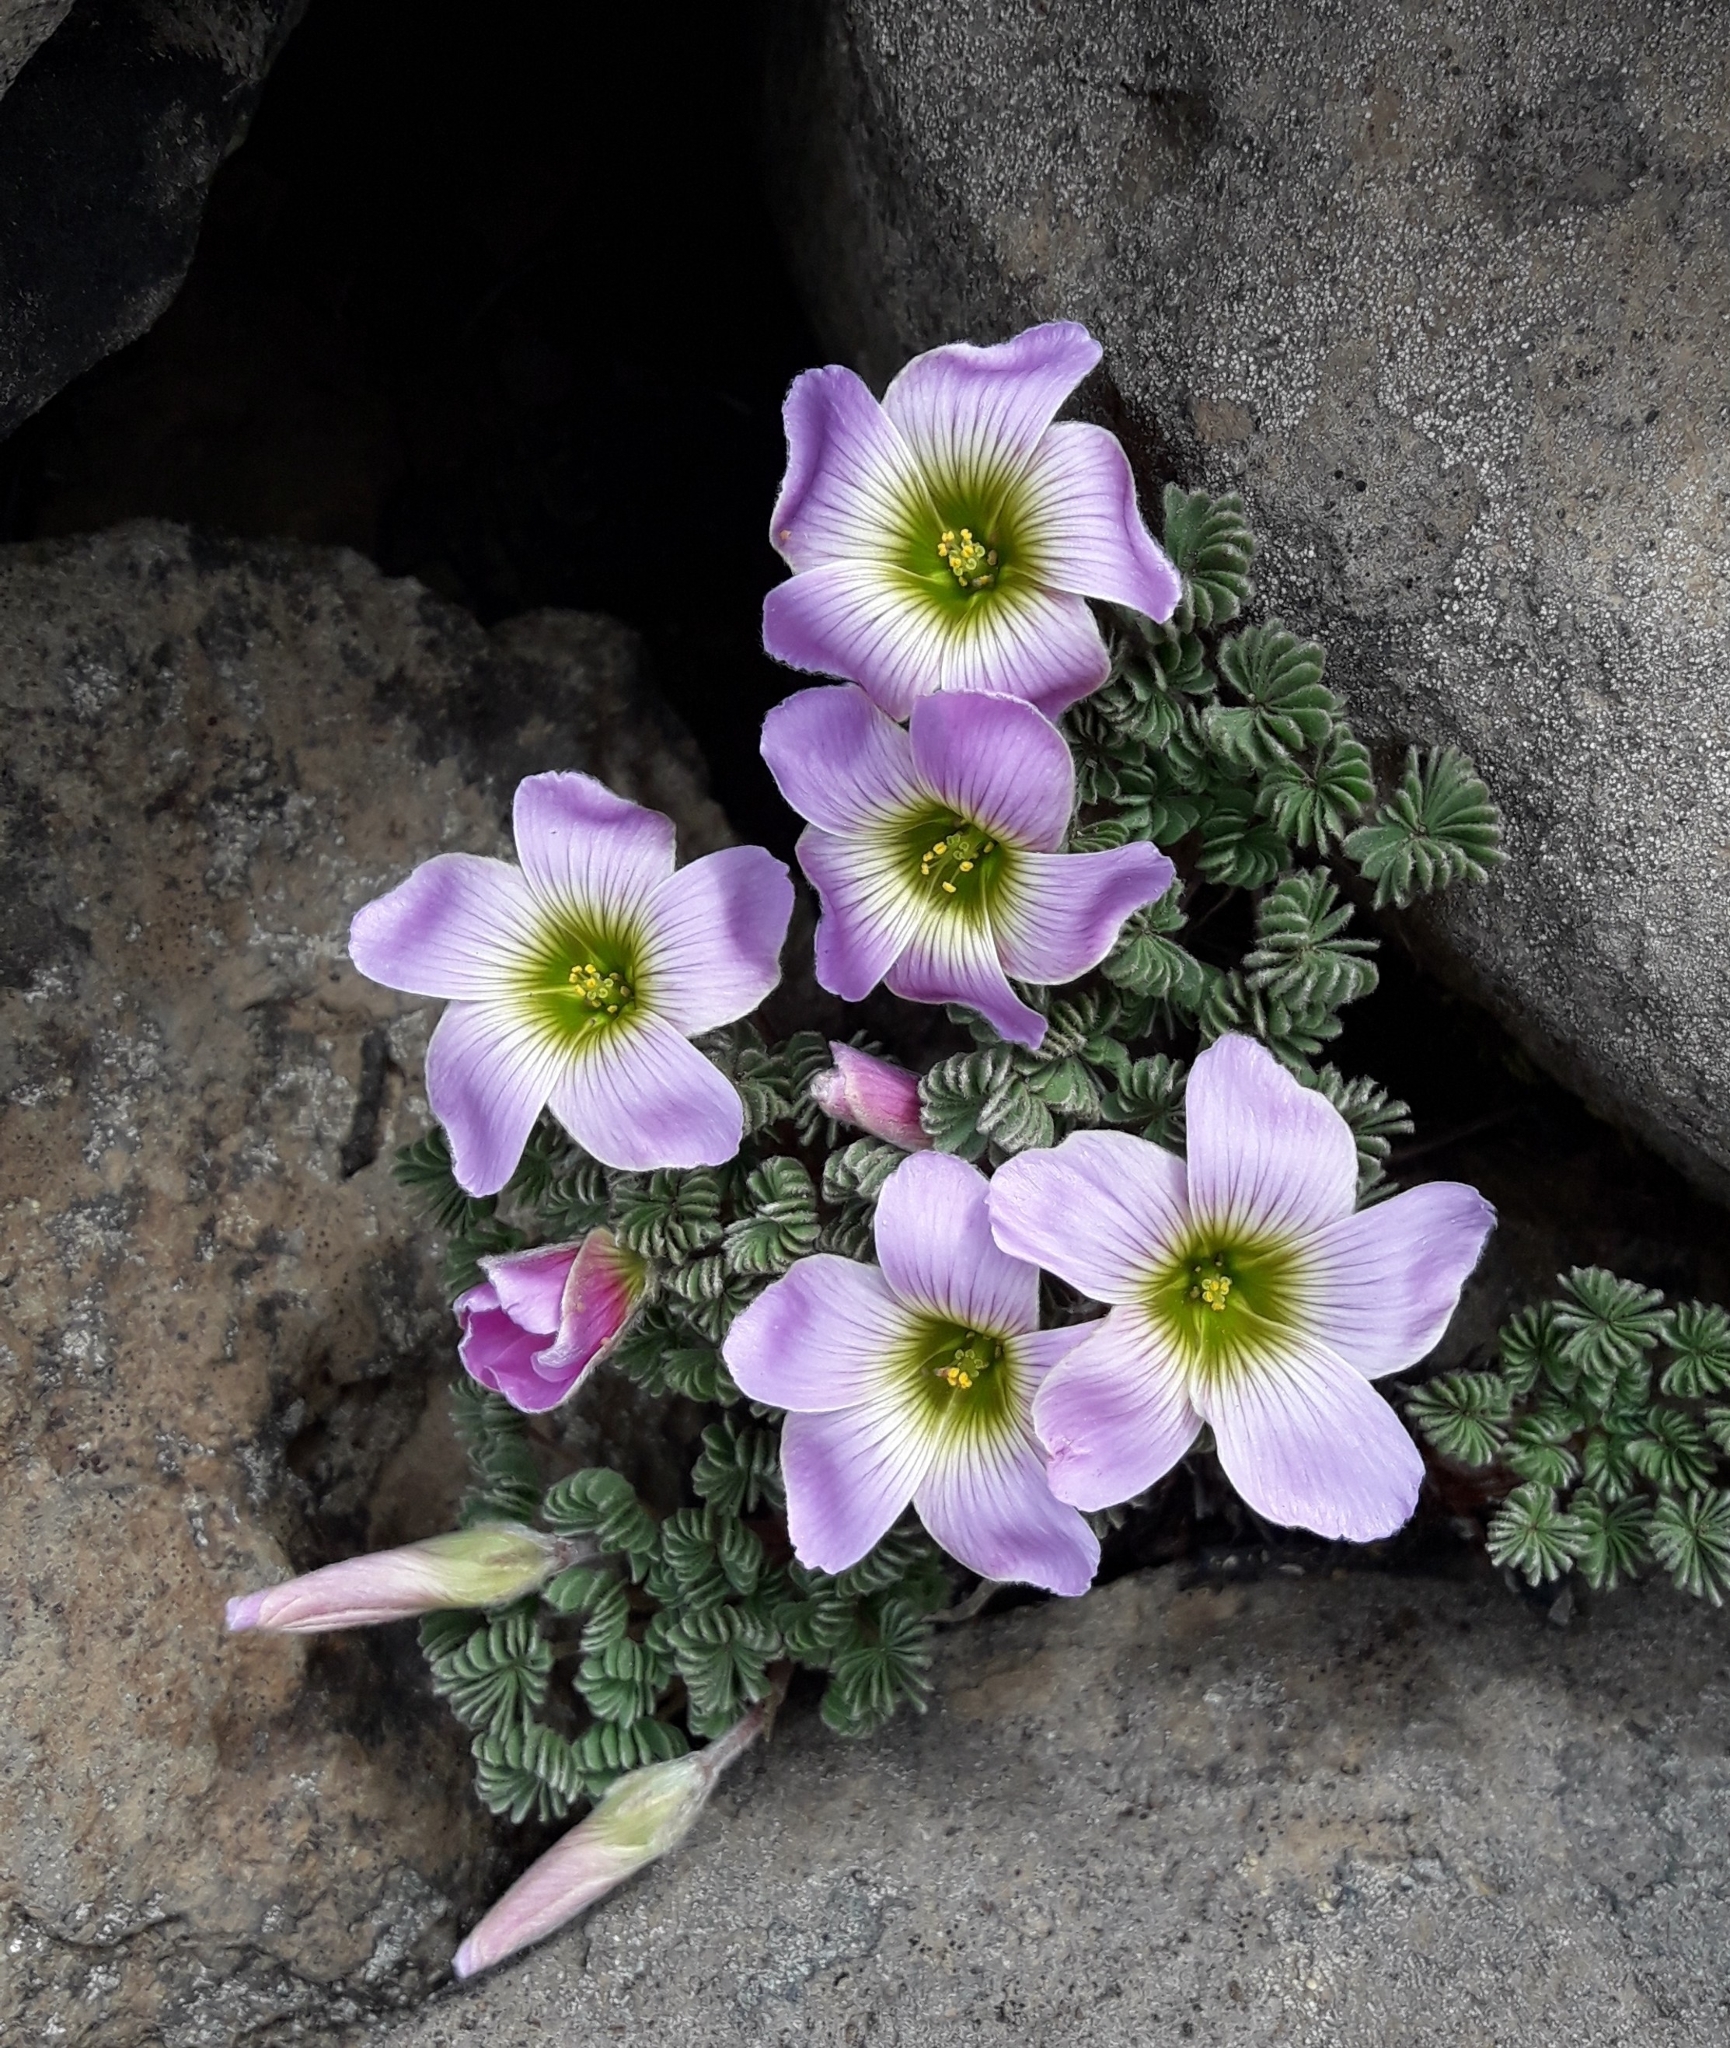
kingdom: Plantae
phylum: Tracheophyta
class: Magnoliopsida
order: Oxalidales
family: Oxalidaceae
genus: Oxalis
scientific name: Oxalis enneaphylla
